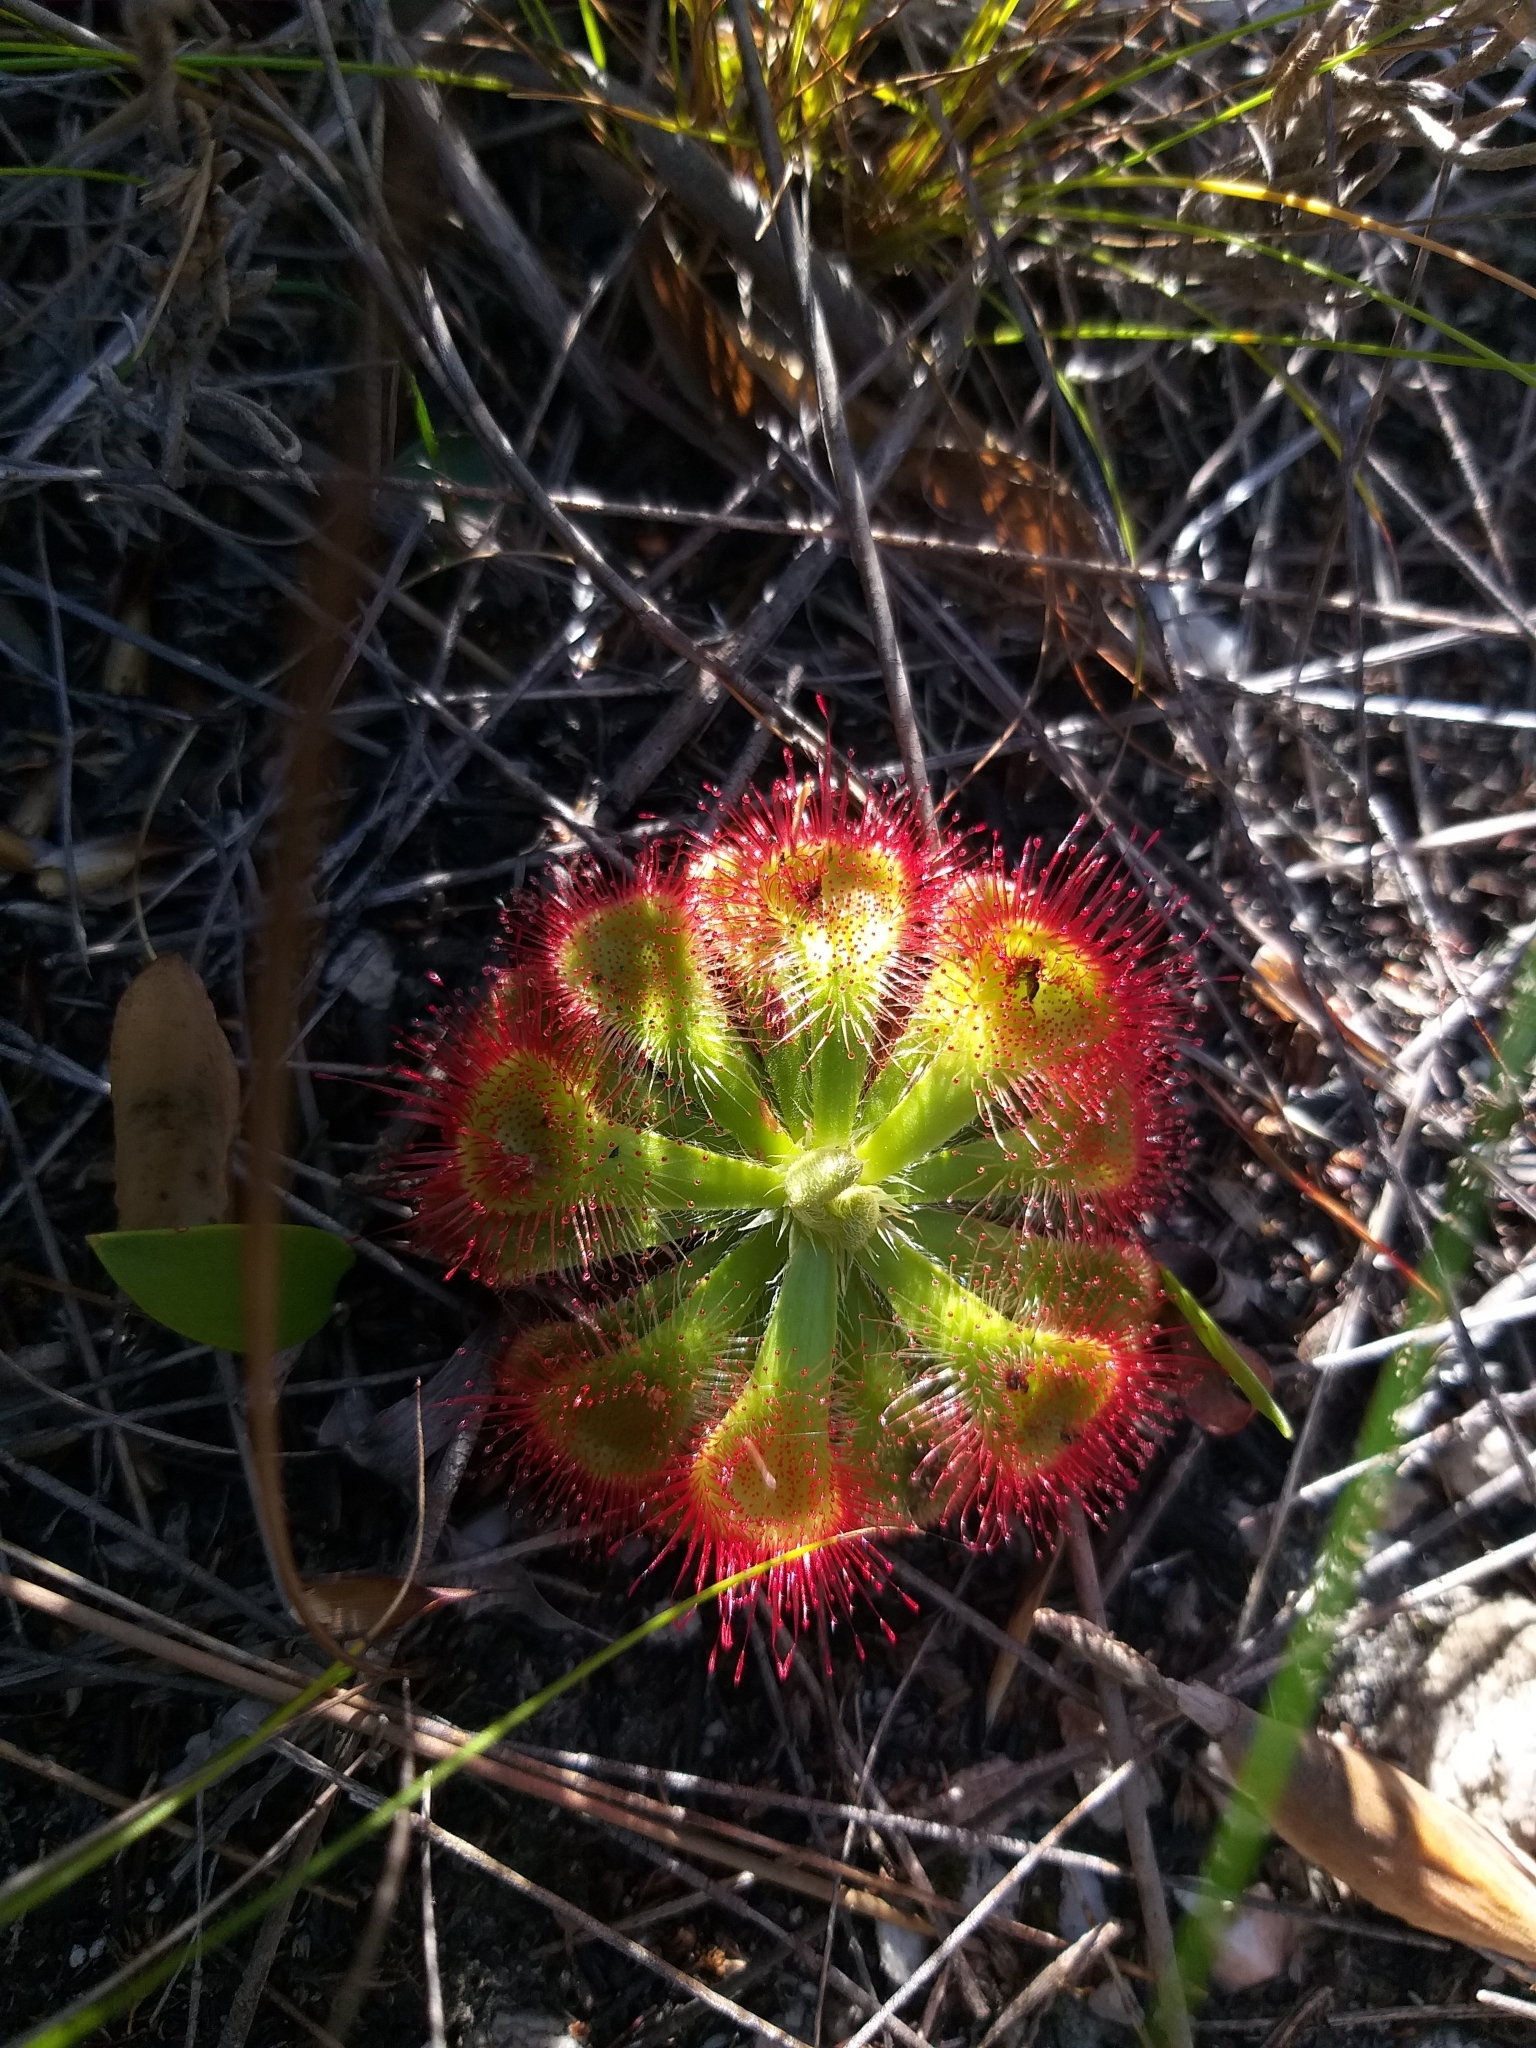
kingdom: Plantae
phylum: Tracheophyta
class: Magnoliopsida
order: Caryophyllales
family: Droseraceae
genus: Drosera
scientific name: Drosera xerophila
